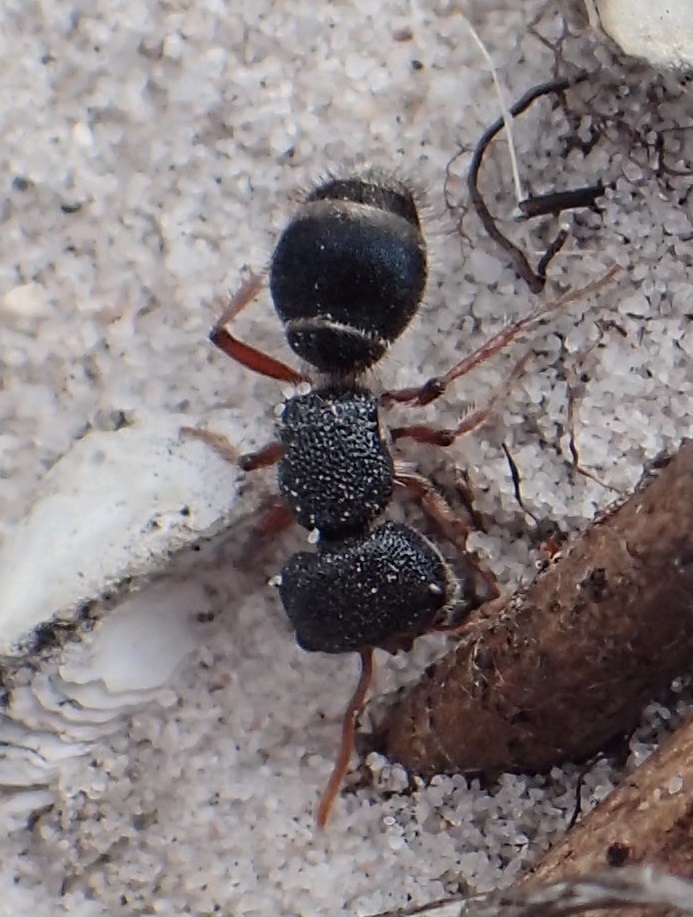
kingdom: Animalia
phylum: Arthropoda
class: Insecta
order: Hymenoptera
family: Mutillidae
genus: Ephutomorpha
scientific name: Ephutomorpha
